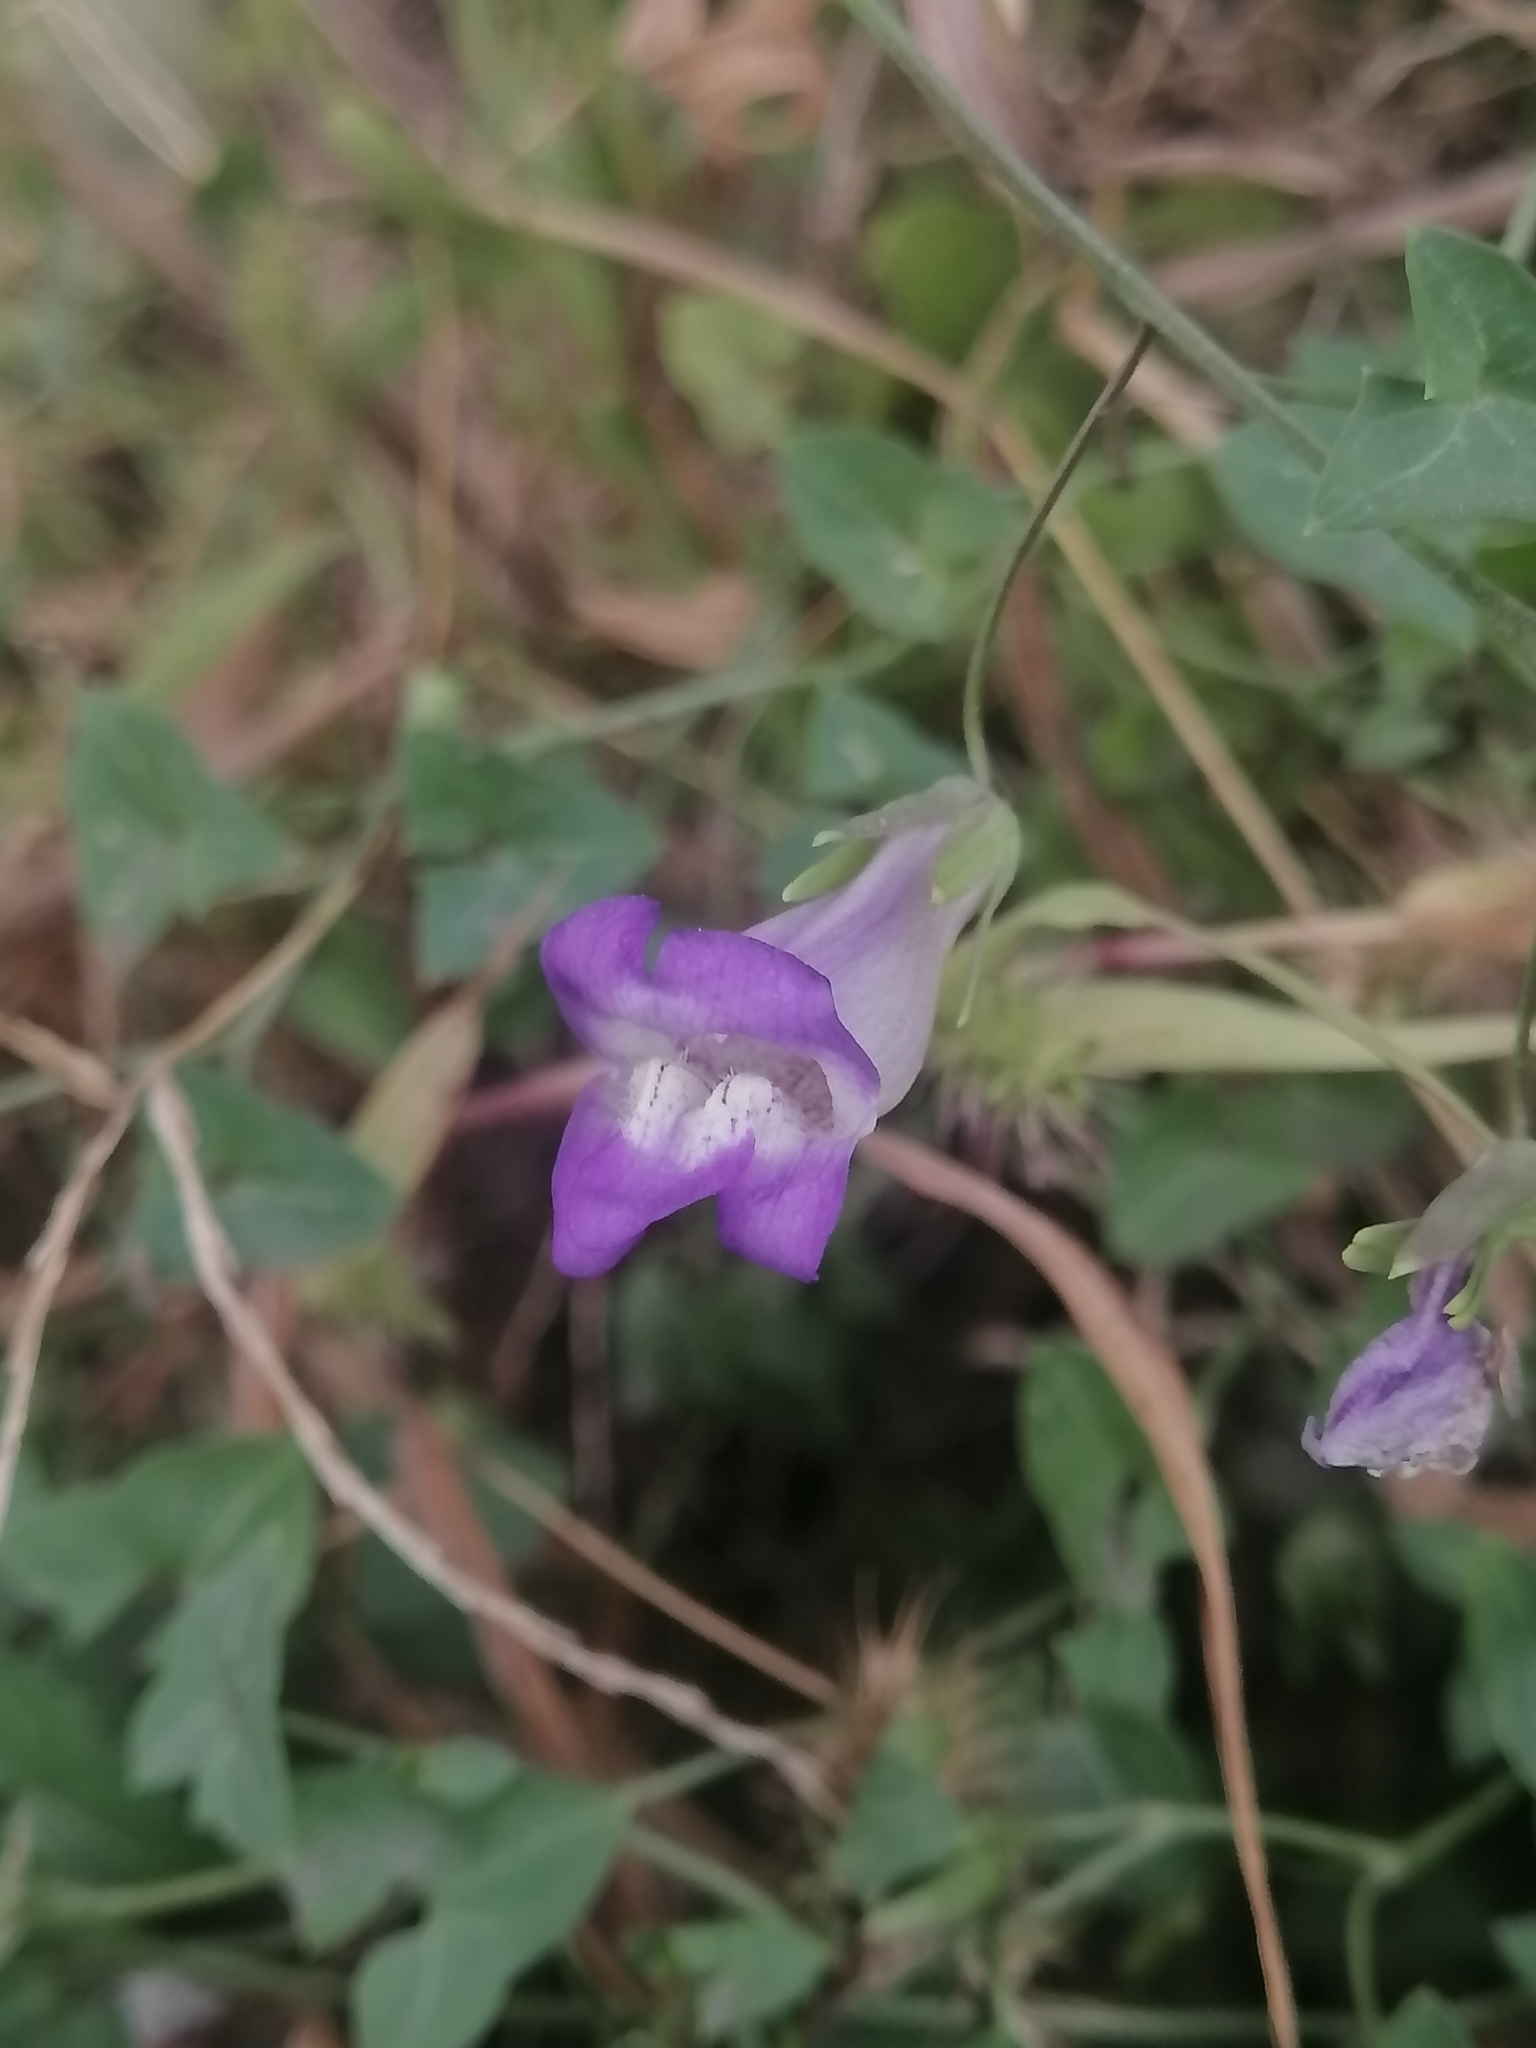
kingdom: Plantae
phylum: Tracheophyta
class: Magnoliopsida
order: Lamiales
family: Plantaginaceae
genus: Maurandella
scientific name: Maurandella antirrhiniflora
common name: Violet twining-snapdragon
